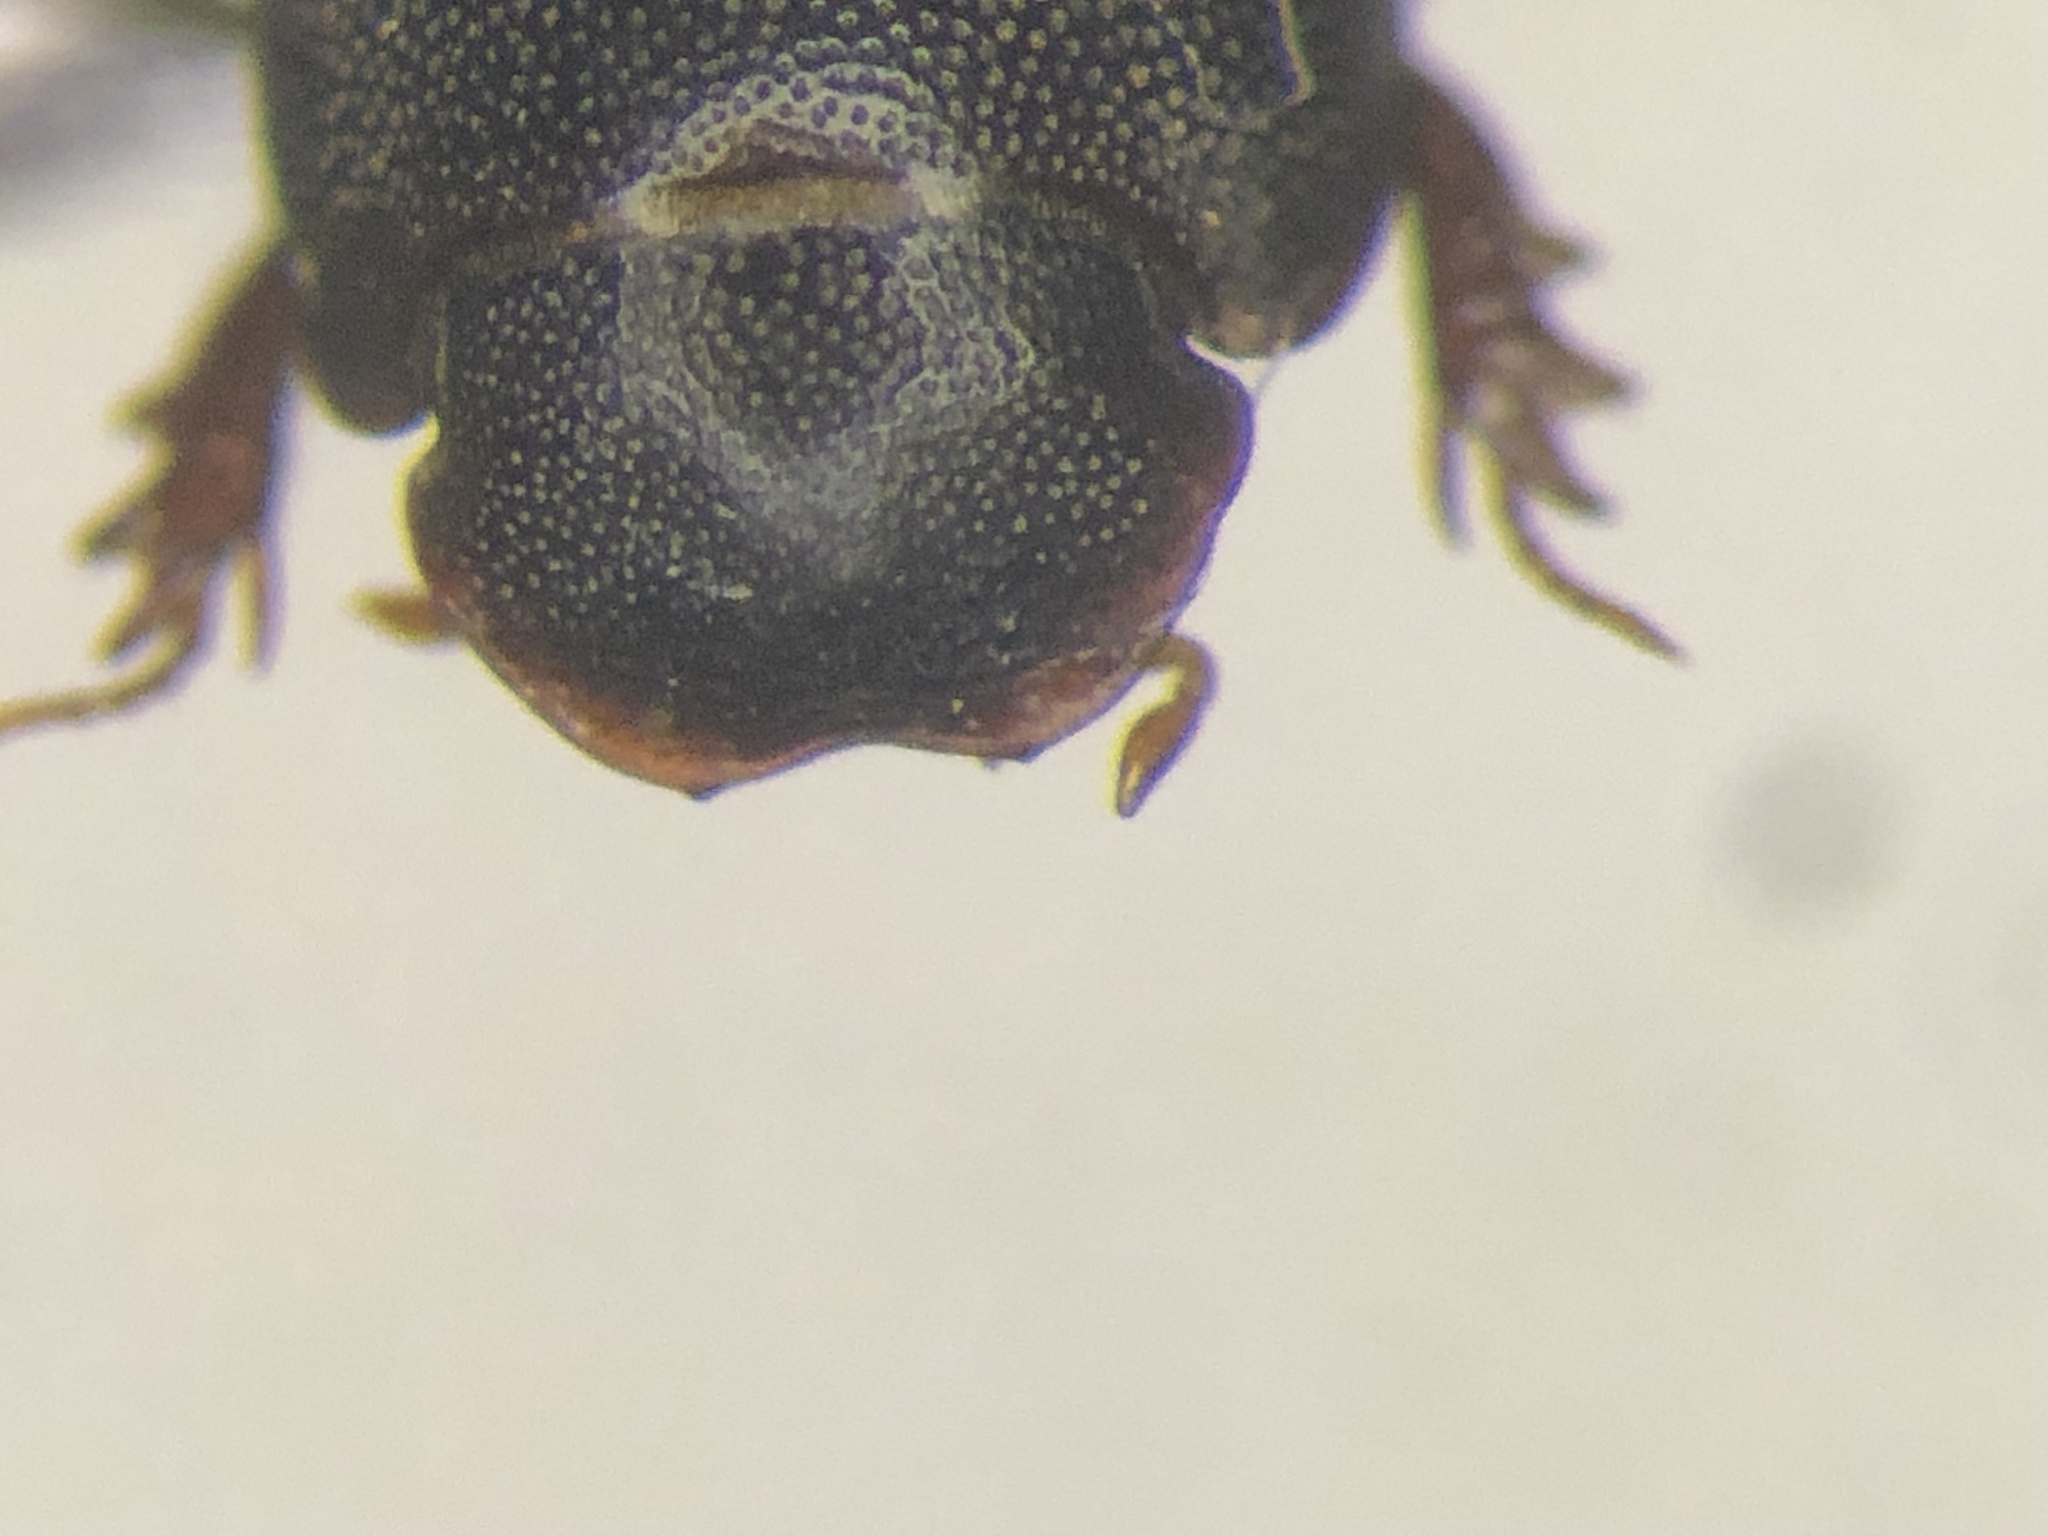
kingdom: Animalia
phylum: Arthropoda
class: Insecta
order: Coleoptera
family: Scarabaeidae
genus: Ataenius
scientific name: Ataenius abditus
